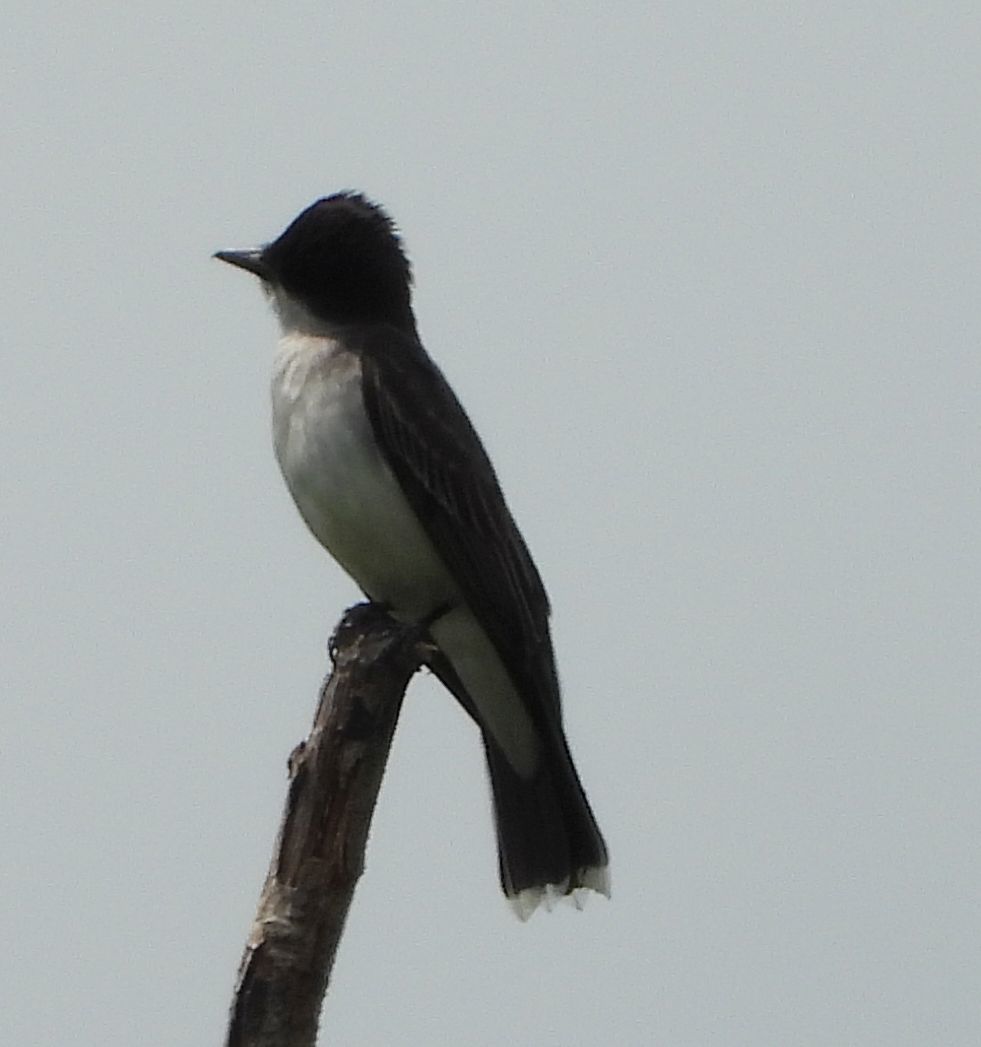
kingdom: Animalia
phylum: Chordata
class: Aves
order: Passeriformes
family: Tyrannidae
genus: Tyrannus
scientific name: Tyrannus tyrannus
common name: Eastern kingbird
